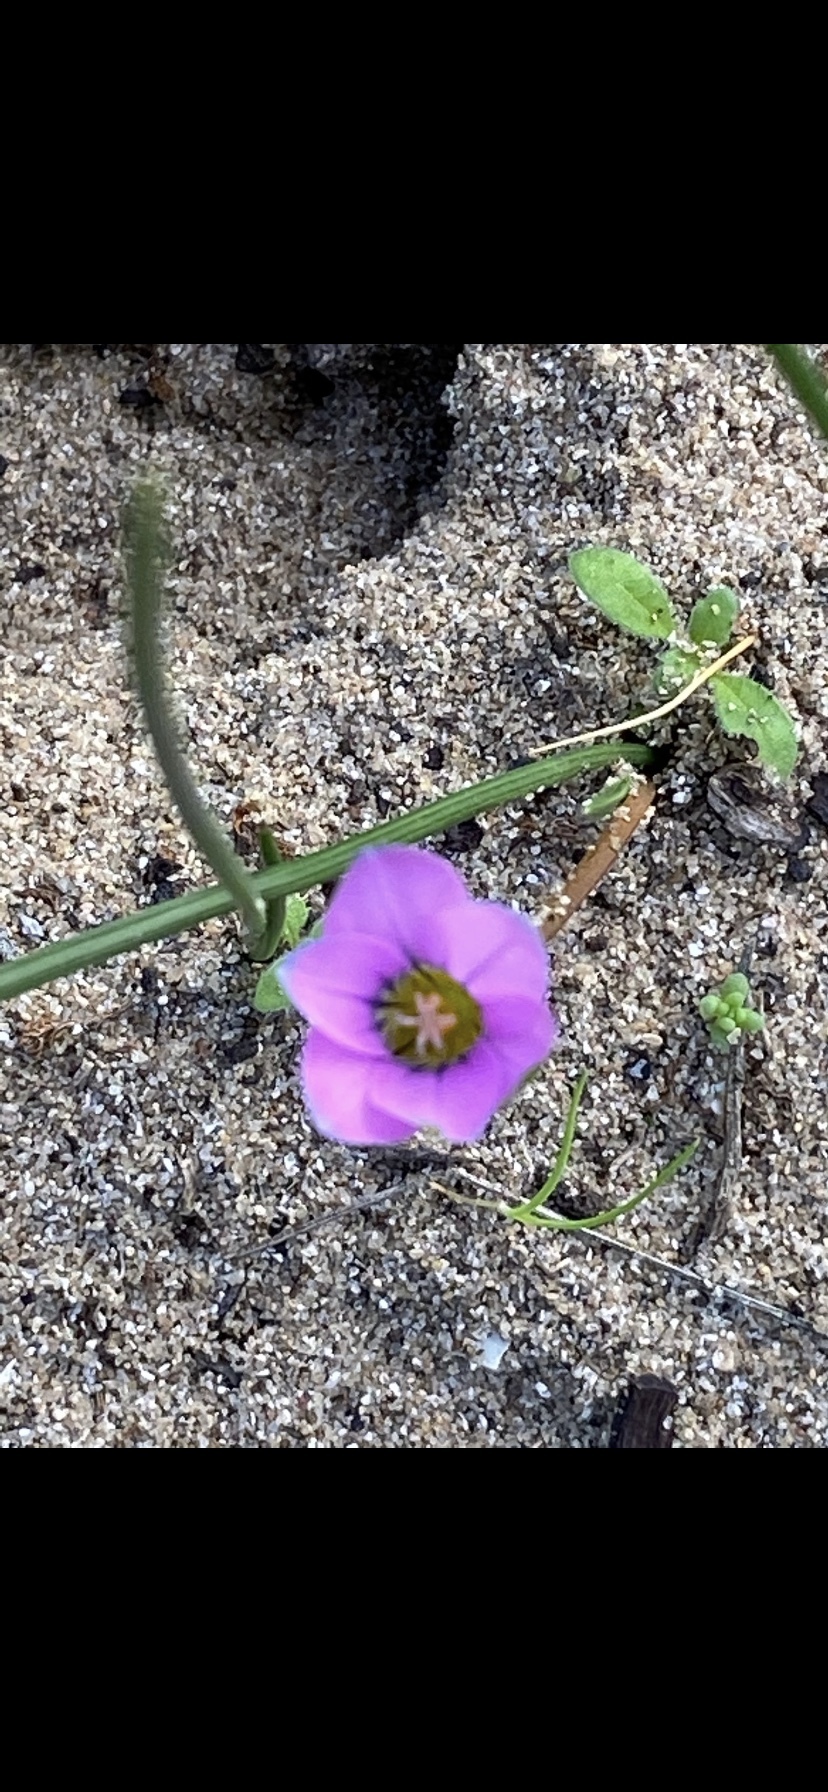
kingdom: Plantae
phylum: Tracheophyta
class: Liliopsida
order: Asparagales
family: Iridaceae
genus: Romulea
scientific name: Romulea rosea
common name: Oniongrass
